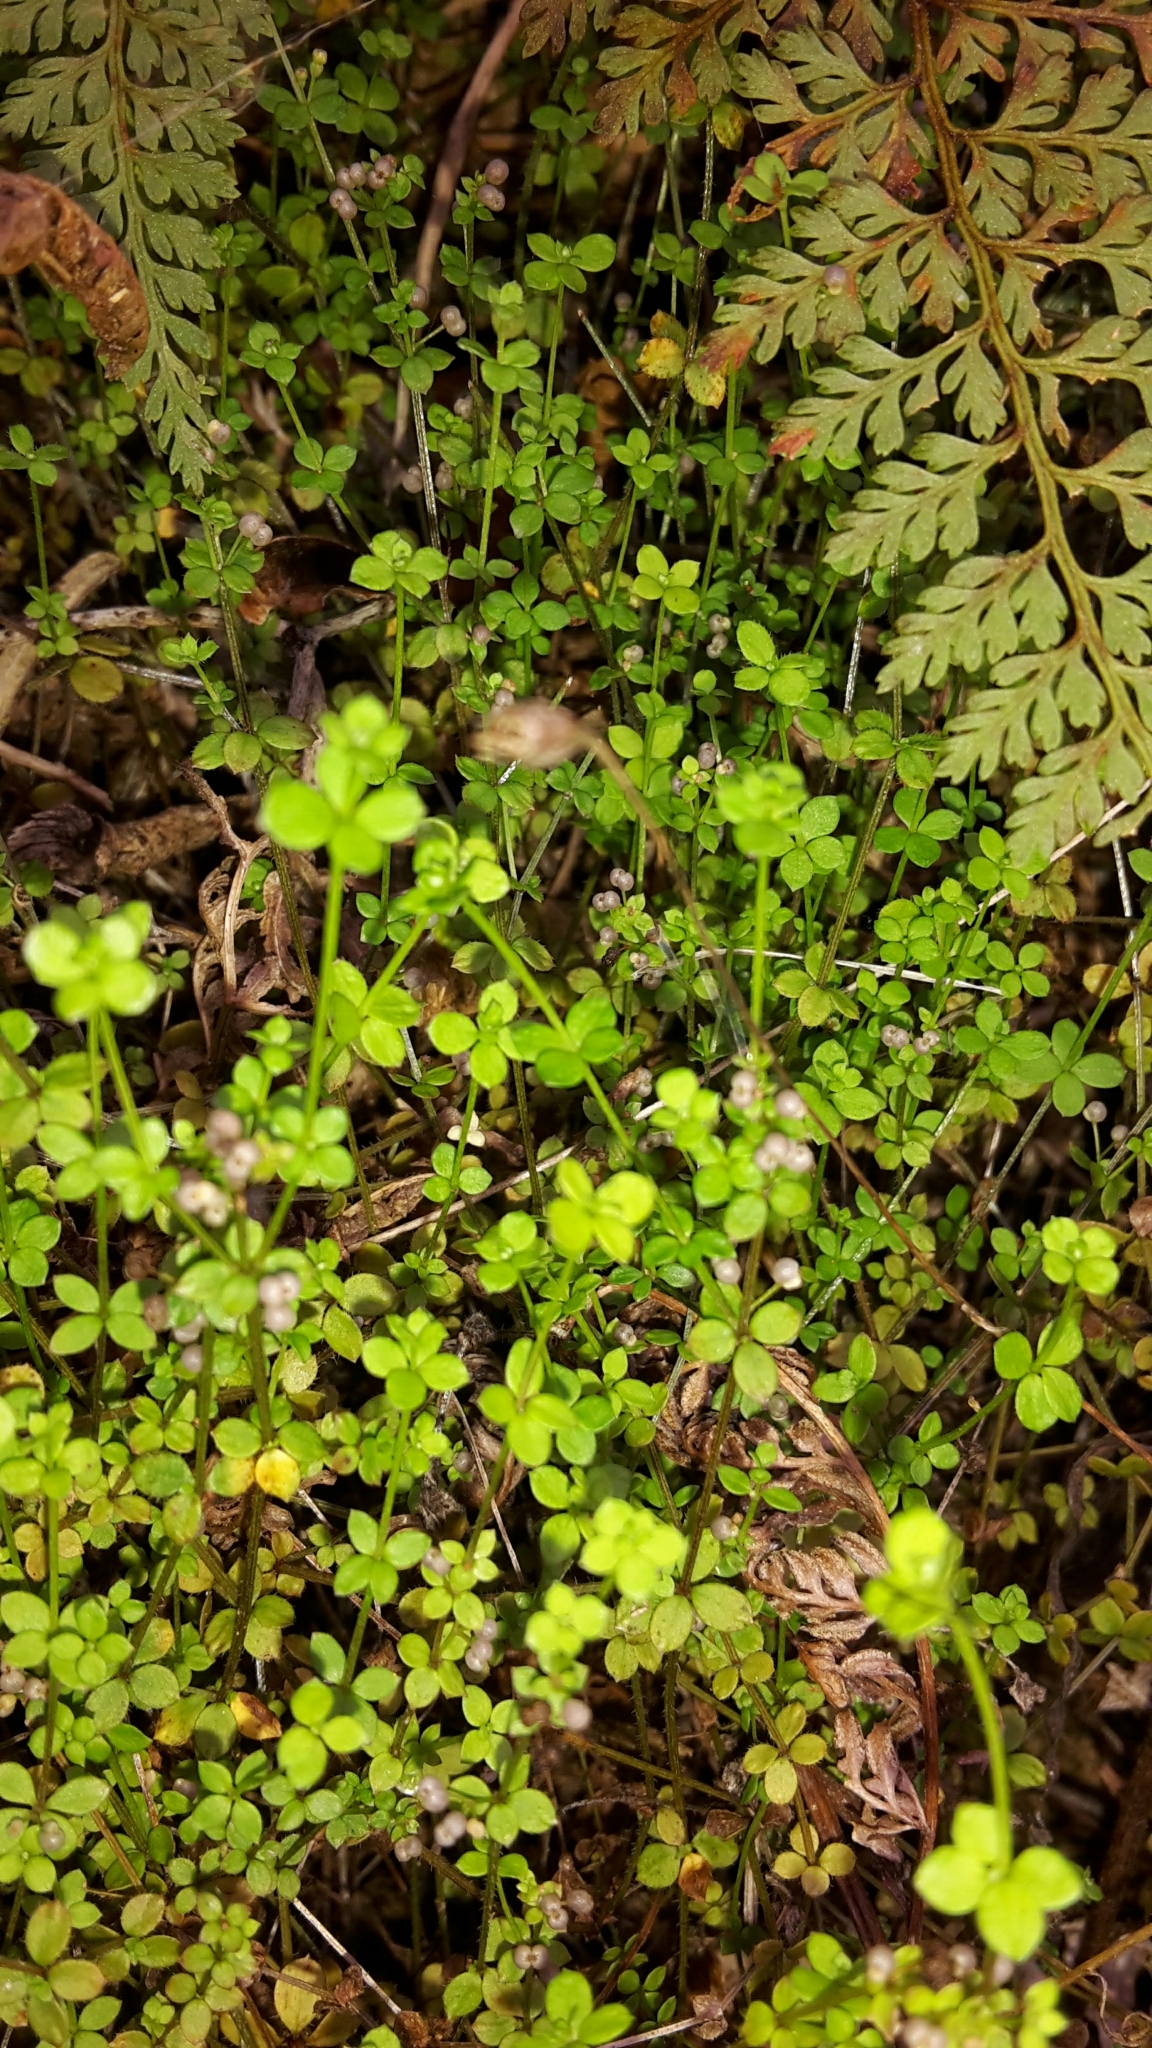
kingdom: Plantae
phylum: Tracheophyta
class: Magnoliopsida
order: Gentianales
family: Rubiaceae
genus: Galium
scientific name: Galium propinquum
